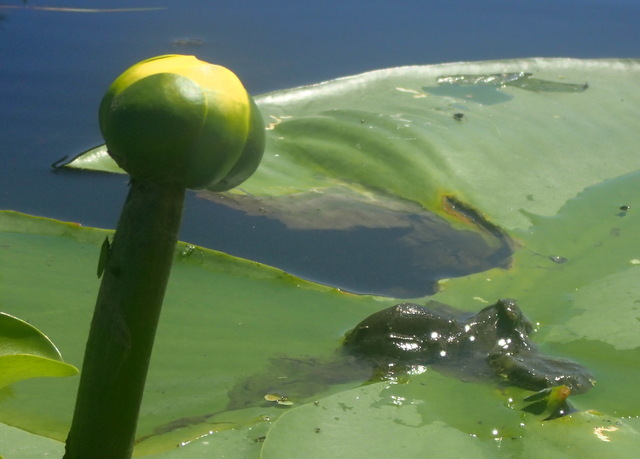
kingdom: Plantae
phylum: Tracheophyta
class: Magnoliopsida
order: Nymphaeales
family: Nymphaeaceae
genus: Nuphar
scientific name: Nuphar advena
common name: Spatter-dock
